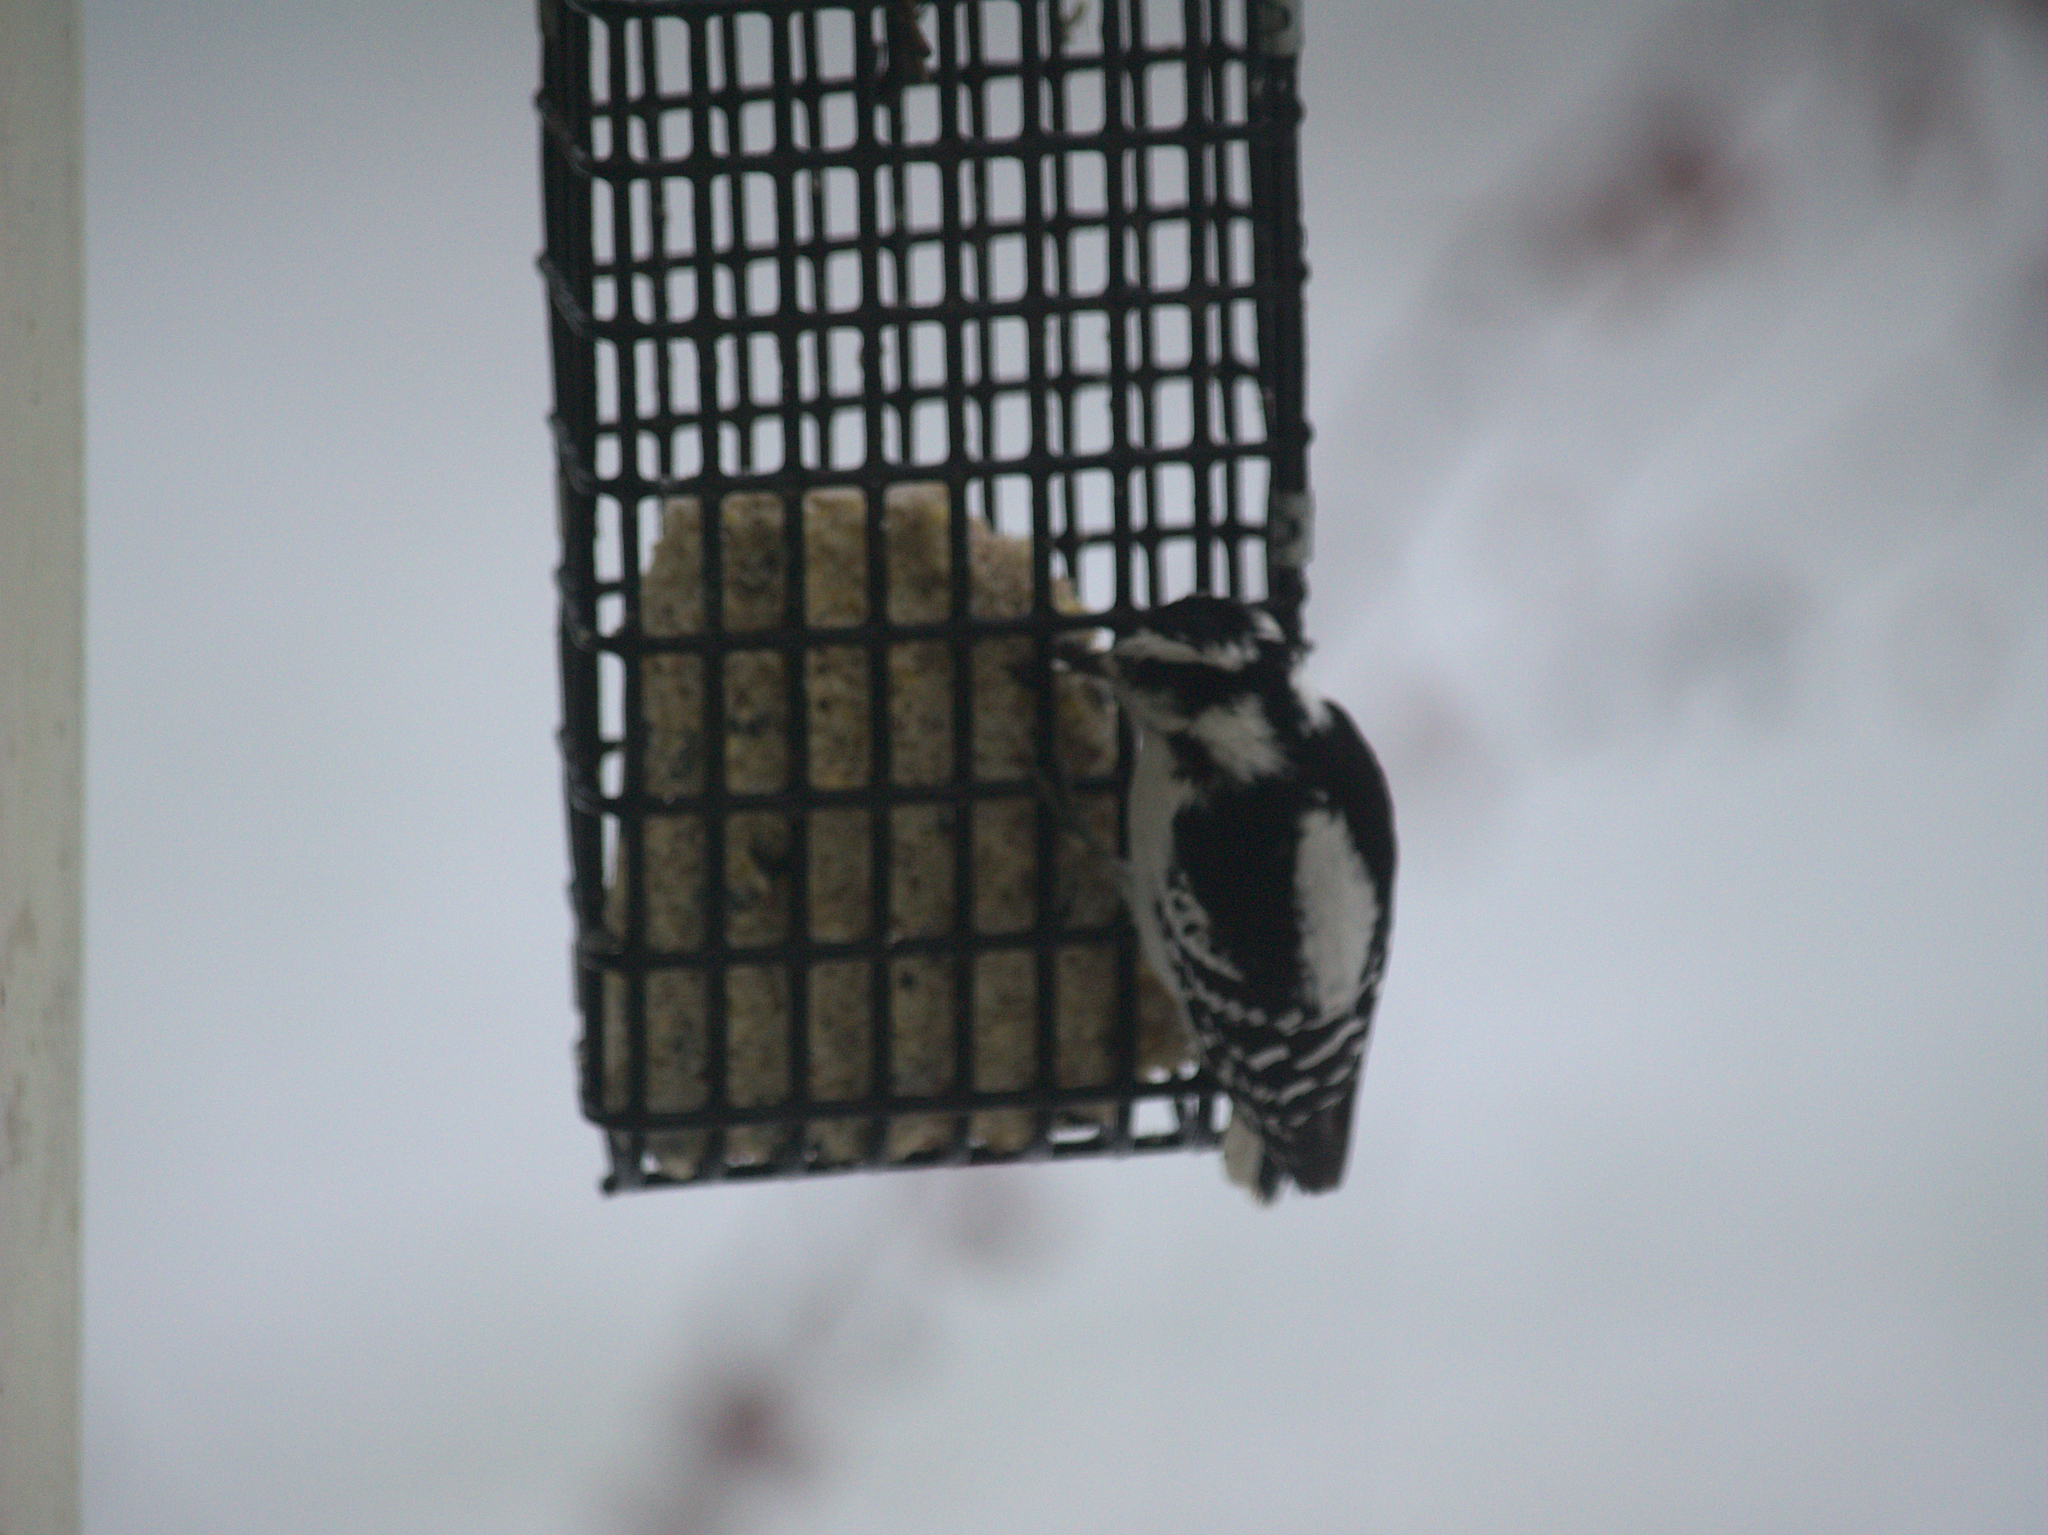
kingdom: Animalia
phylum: Chordata
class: Aves
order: Piciformes
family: Picidae
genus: Dryobates
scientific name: Dryobates pubescens
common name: Downy woodpecker
